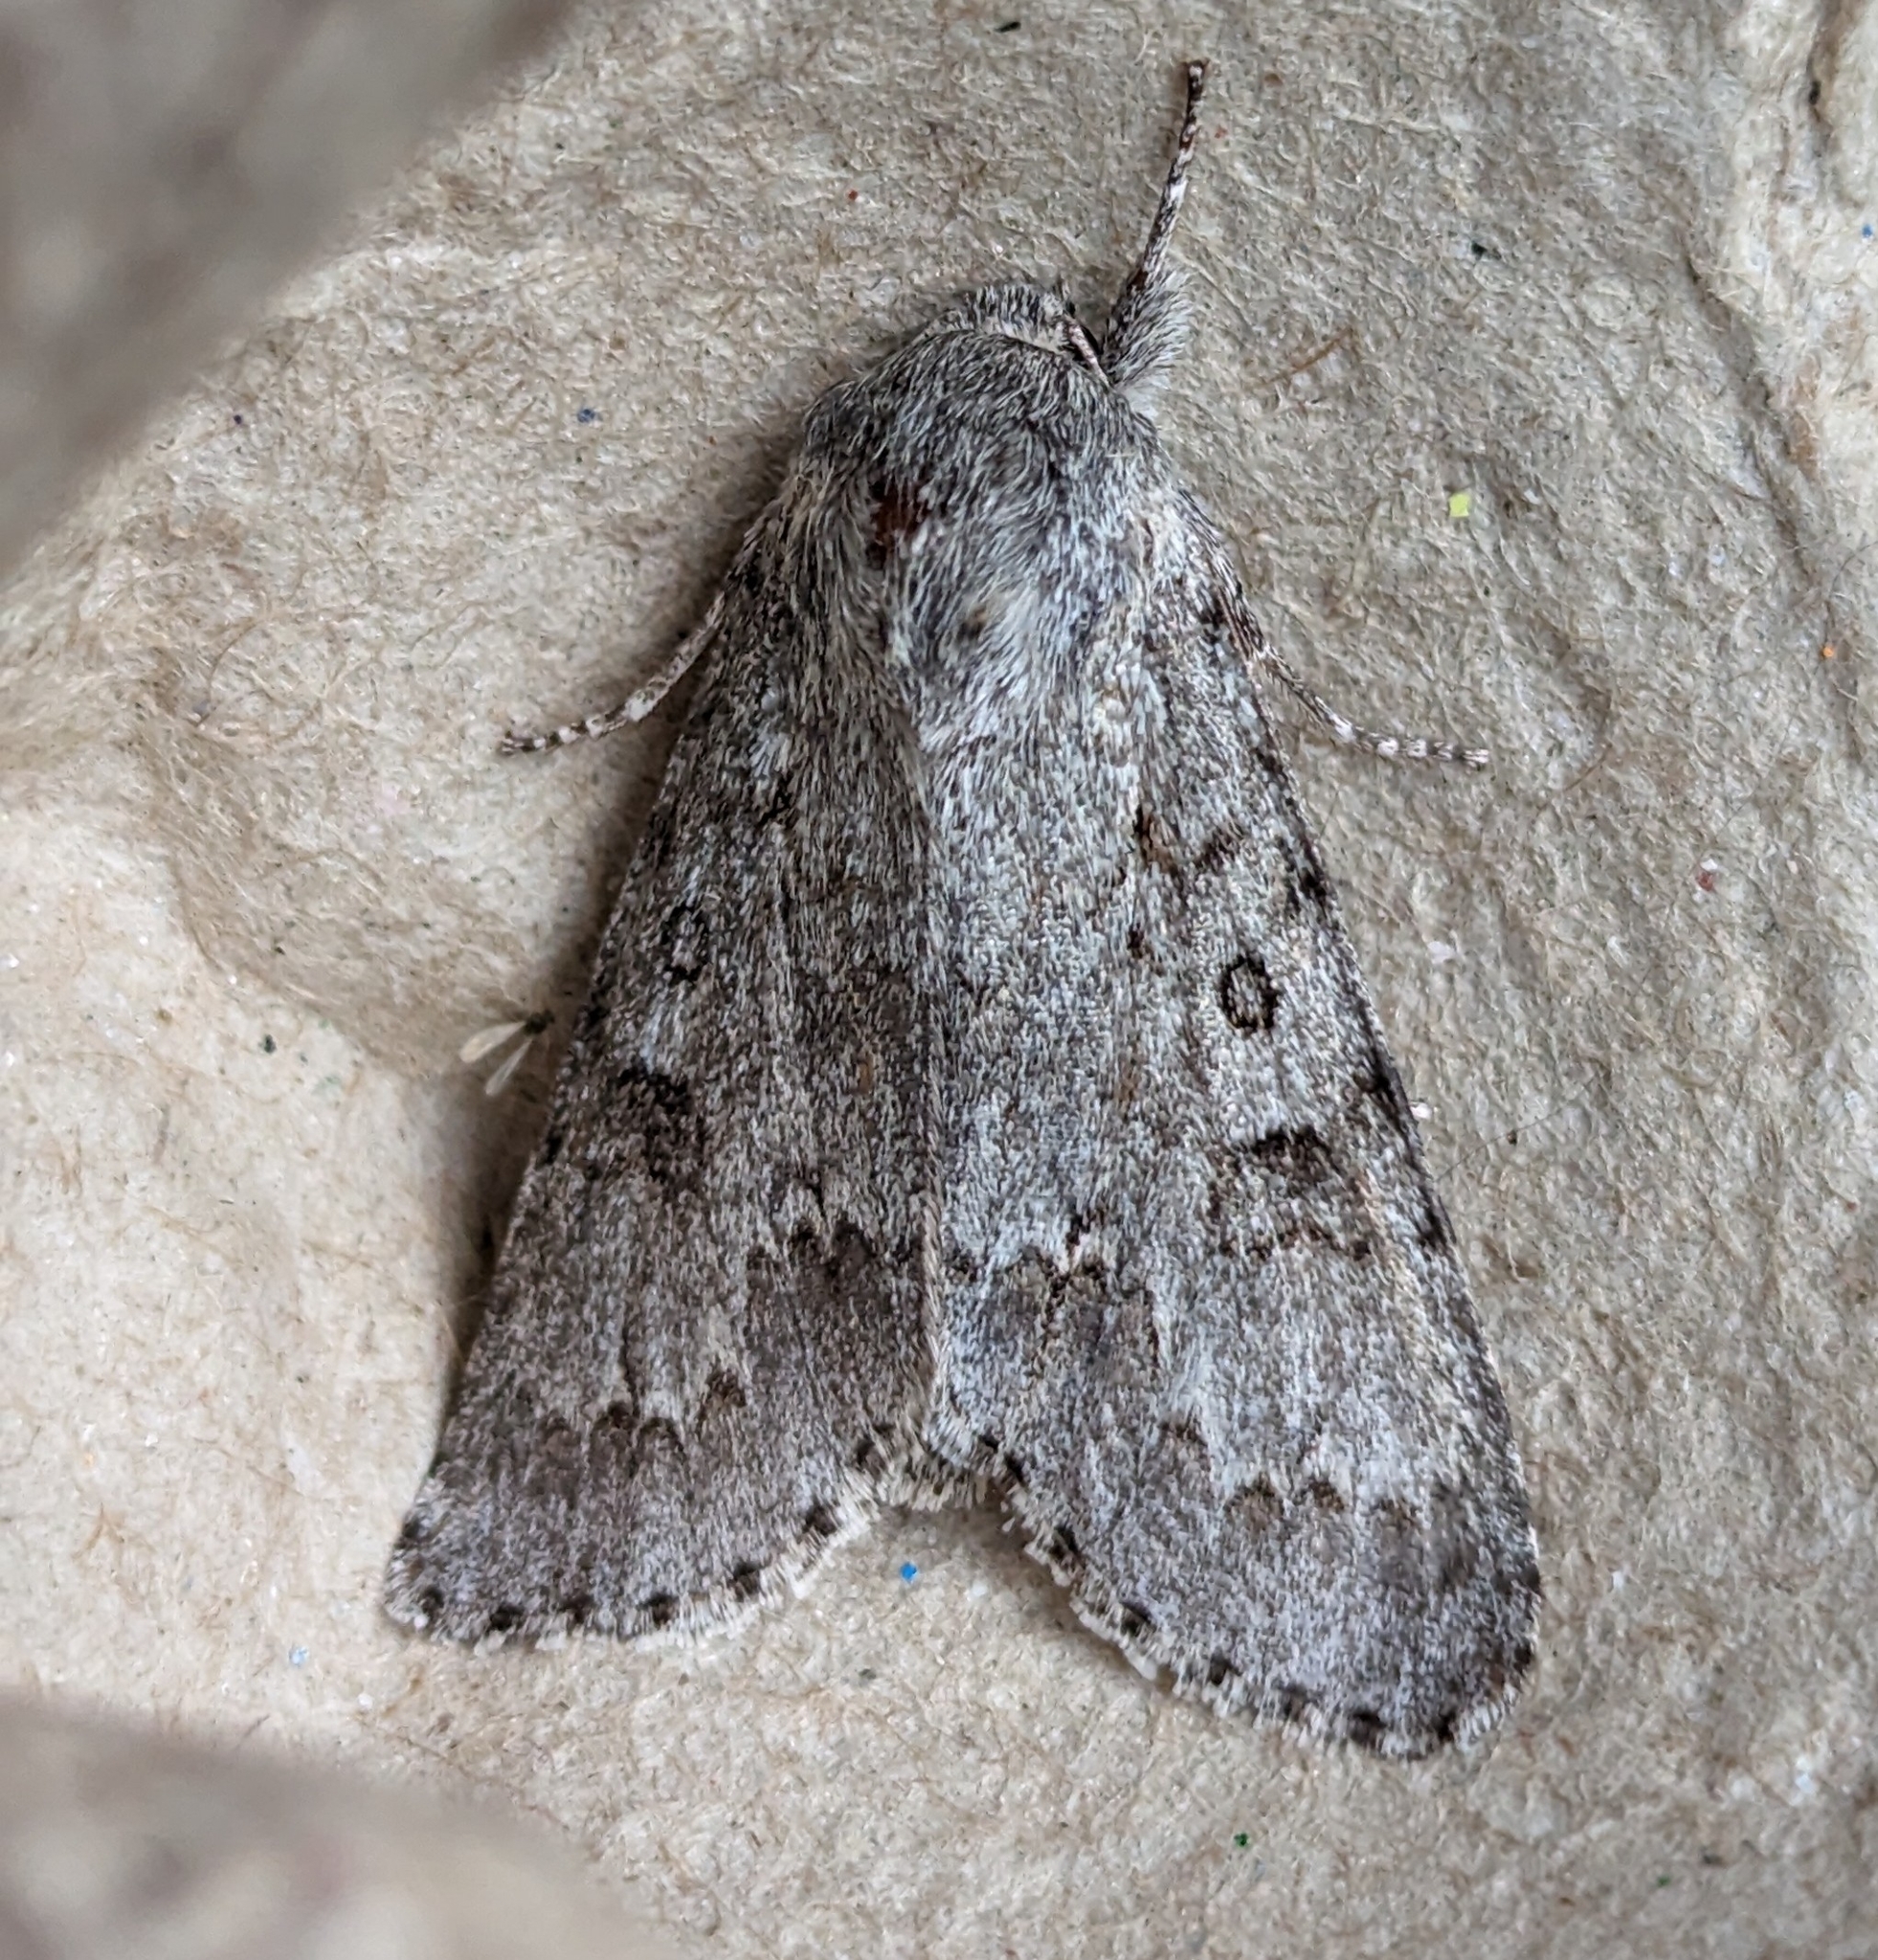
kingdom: Animalia
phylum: Arthropoda
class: Insecta
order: Lepidoptera
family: Noctuidae
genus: Acronicta
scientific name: Acronicta insita
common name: Large gray dagger
